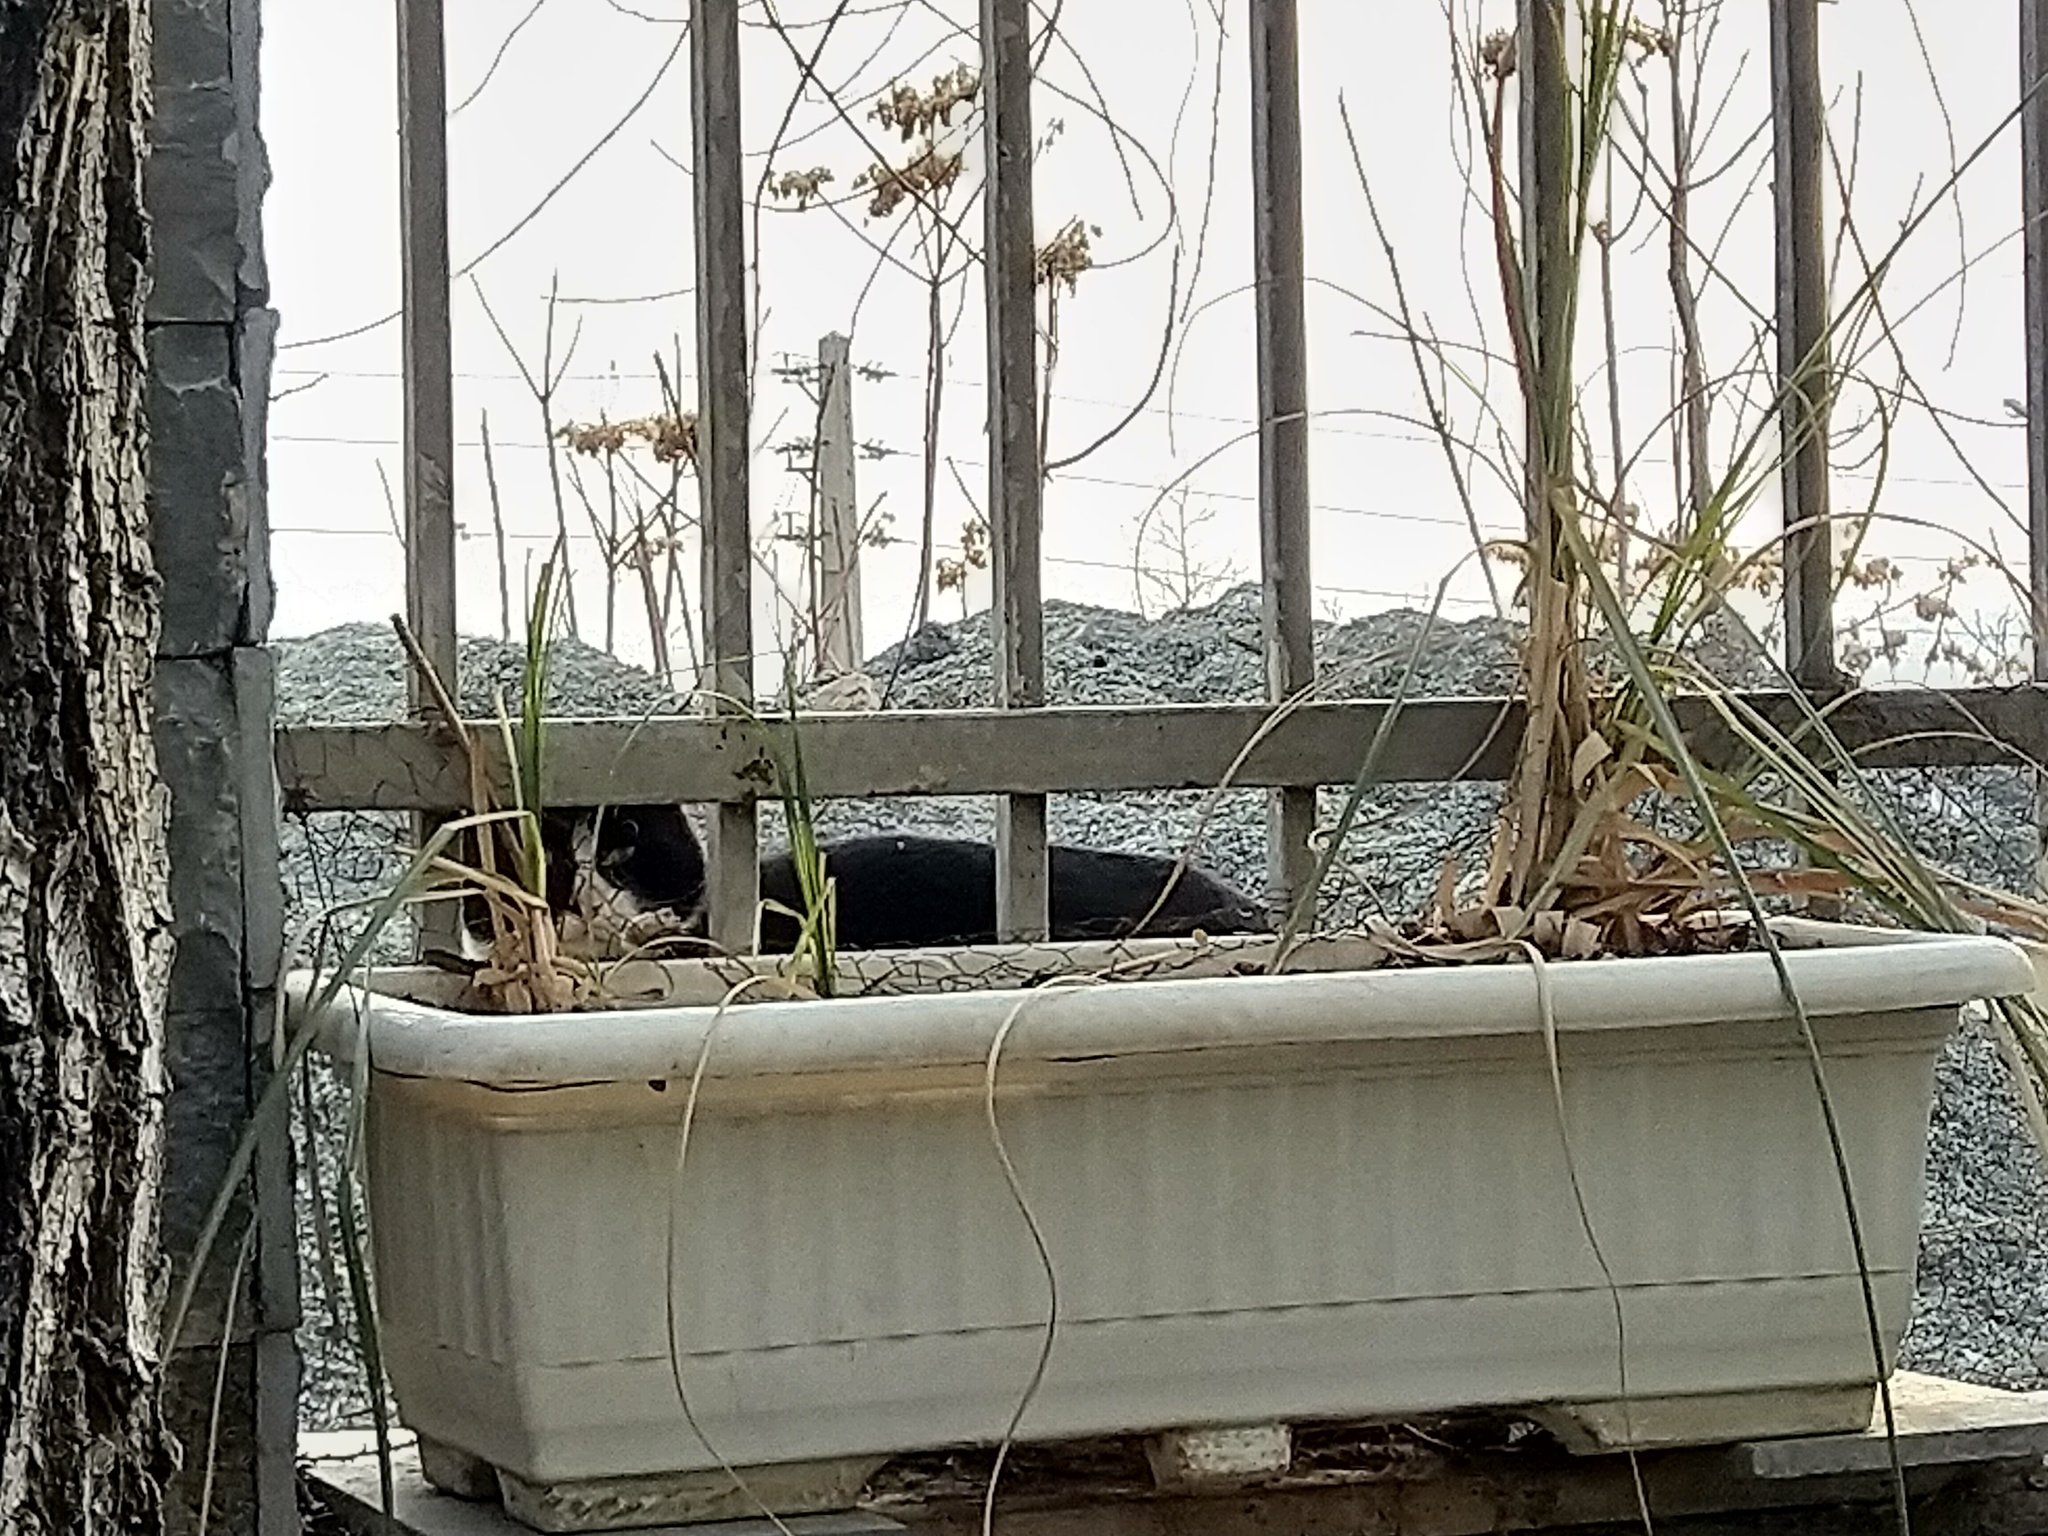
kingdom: Animalia
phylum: Chordata
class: Mammalia
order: Carnivora
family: Felidae
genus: Felis
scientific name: Felis catus
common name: Domestic cat
